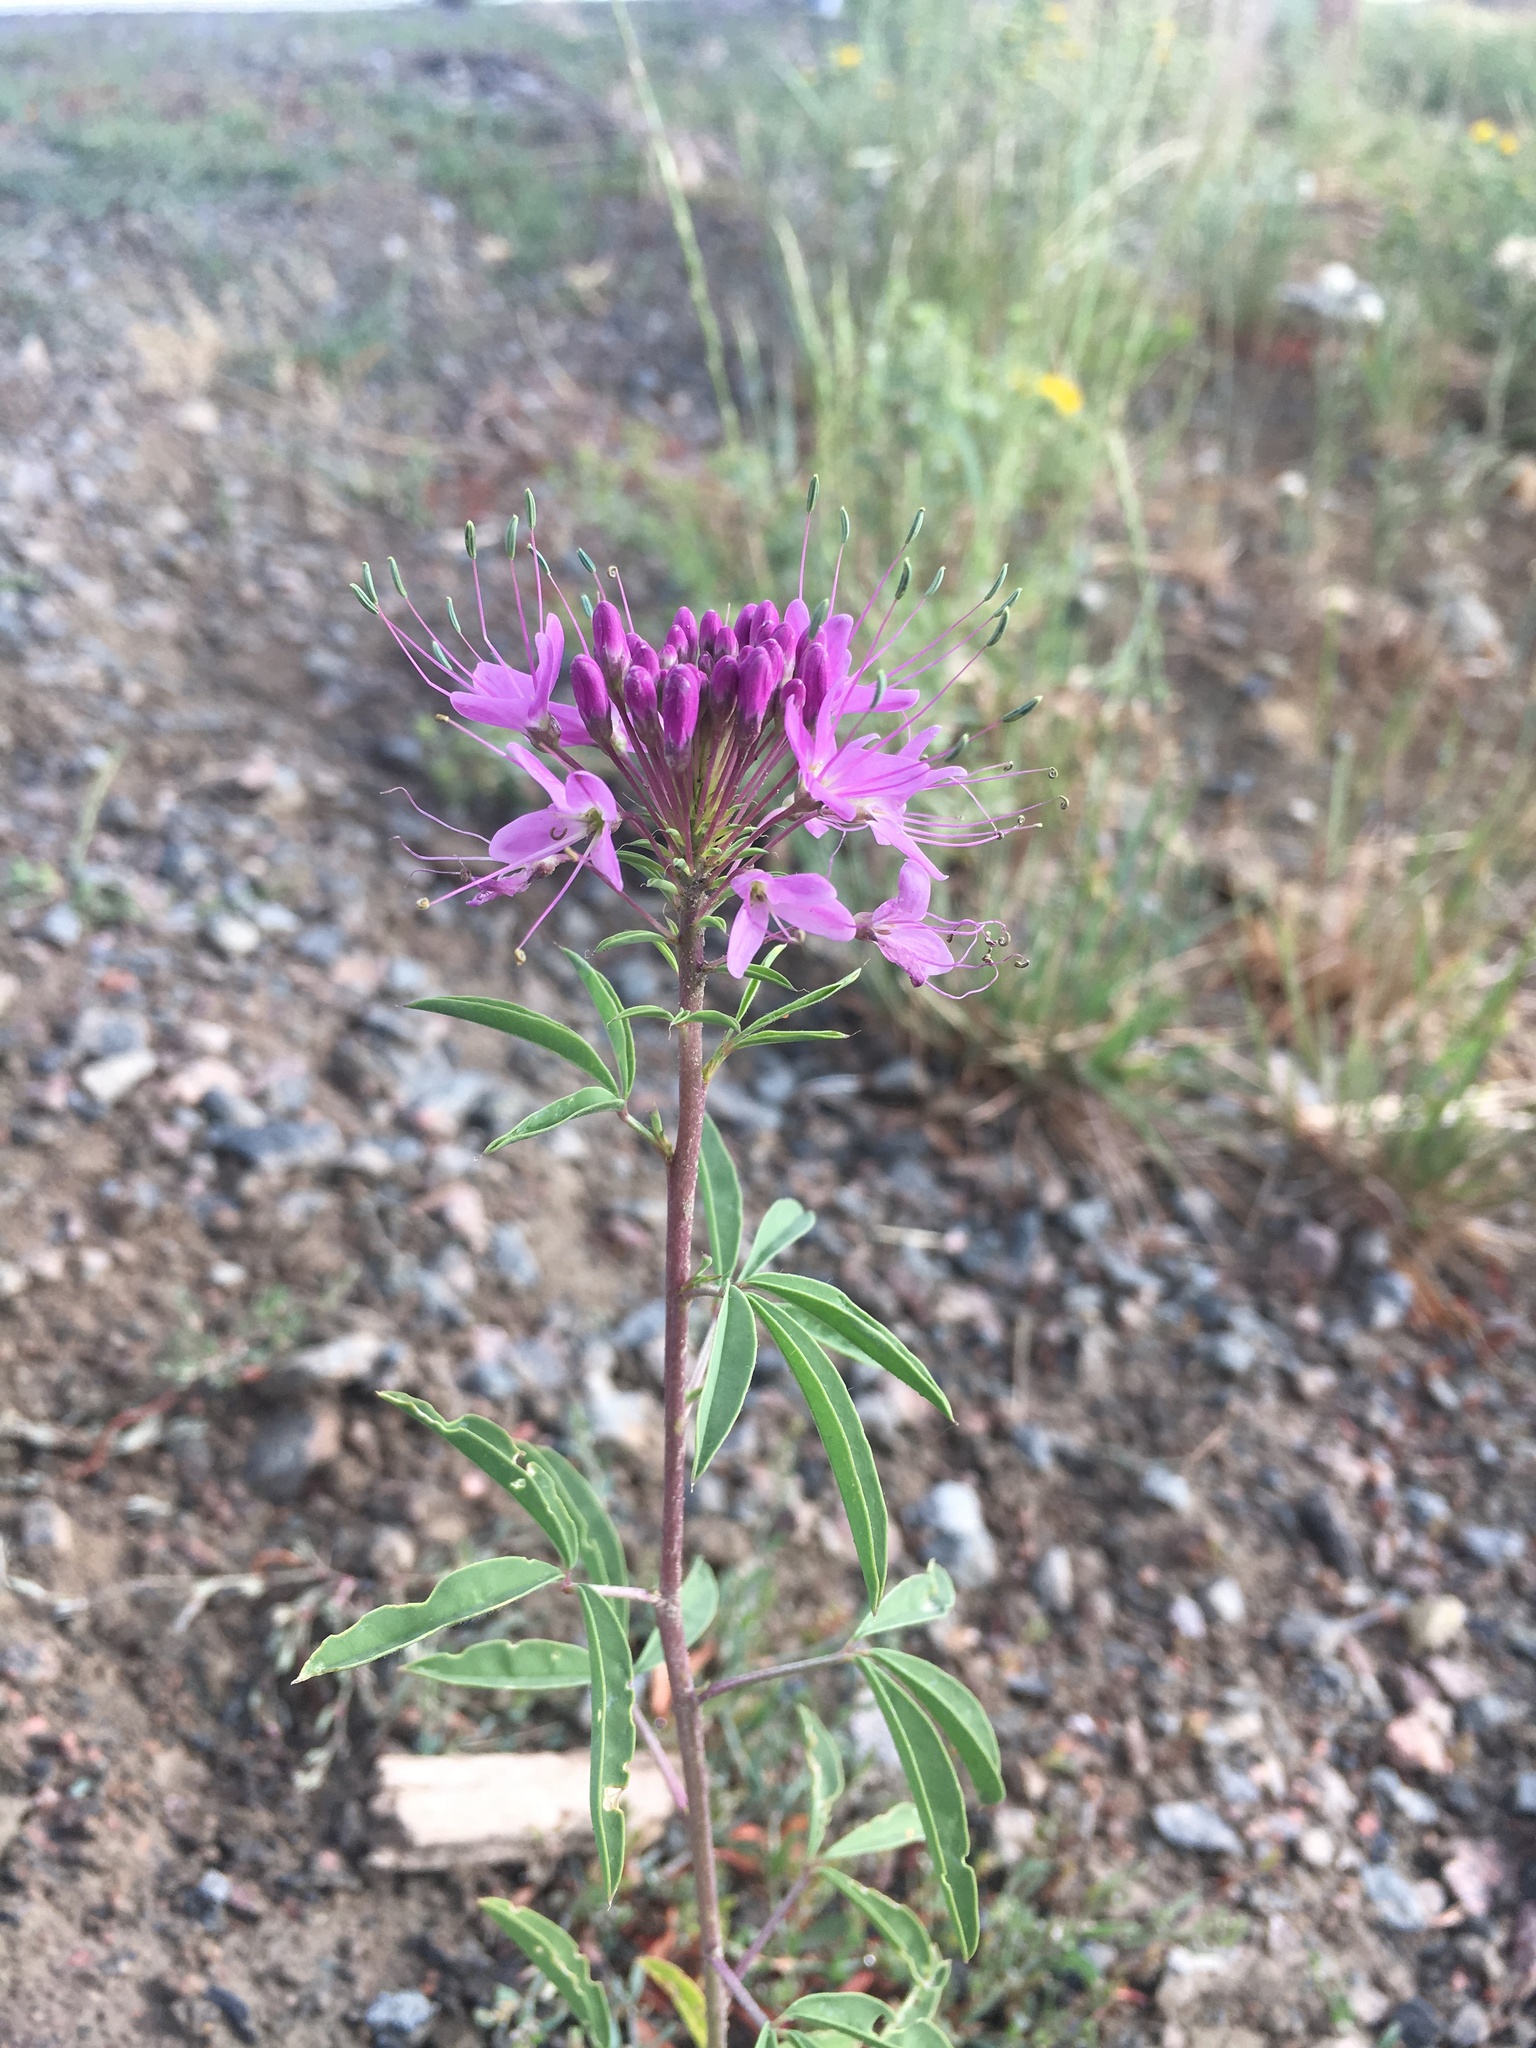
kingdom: Plantae
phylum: Tracheophyta
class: Magnoliopsida
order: Brassicales
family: Cleomaceae
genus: Cleomella
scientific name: Cleomella serrulata
